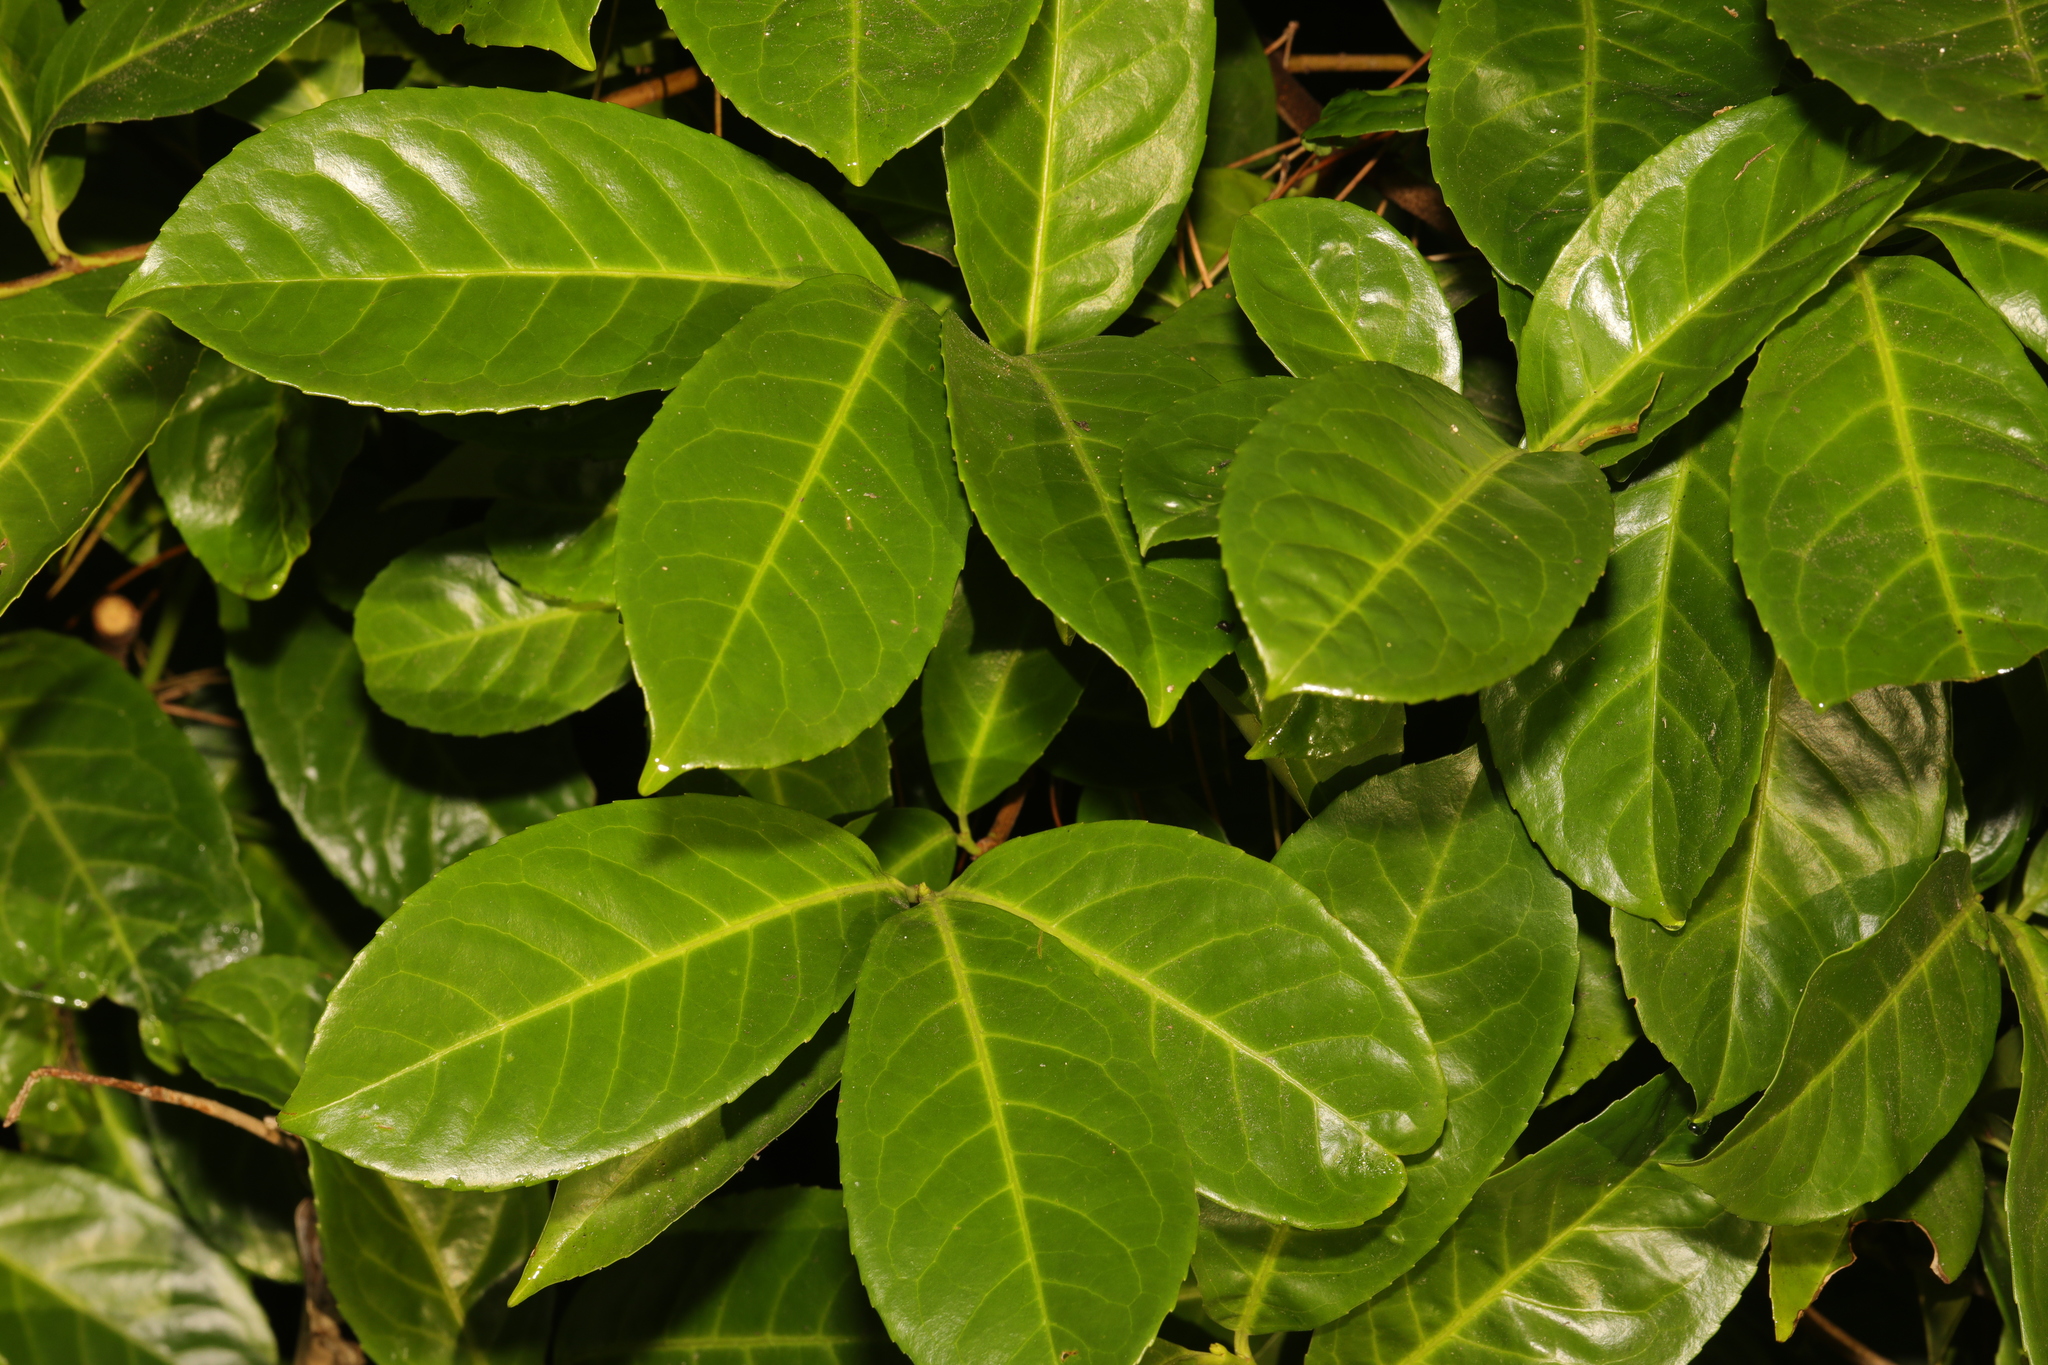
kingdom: Plantae
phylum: Tracheophyta
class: Magnoliopsida
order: Rosales
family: Rosaceae
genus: Prunus
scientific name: Prunus laurocerasus
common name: Cherry laurel
